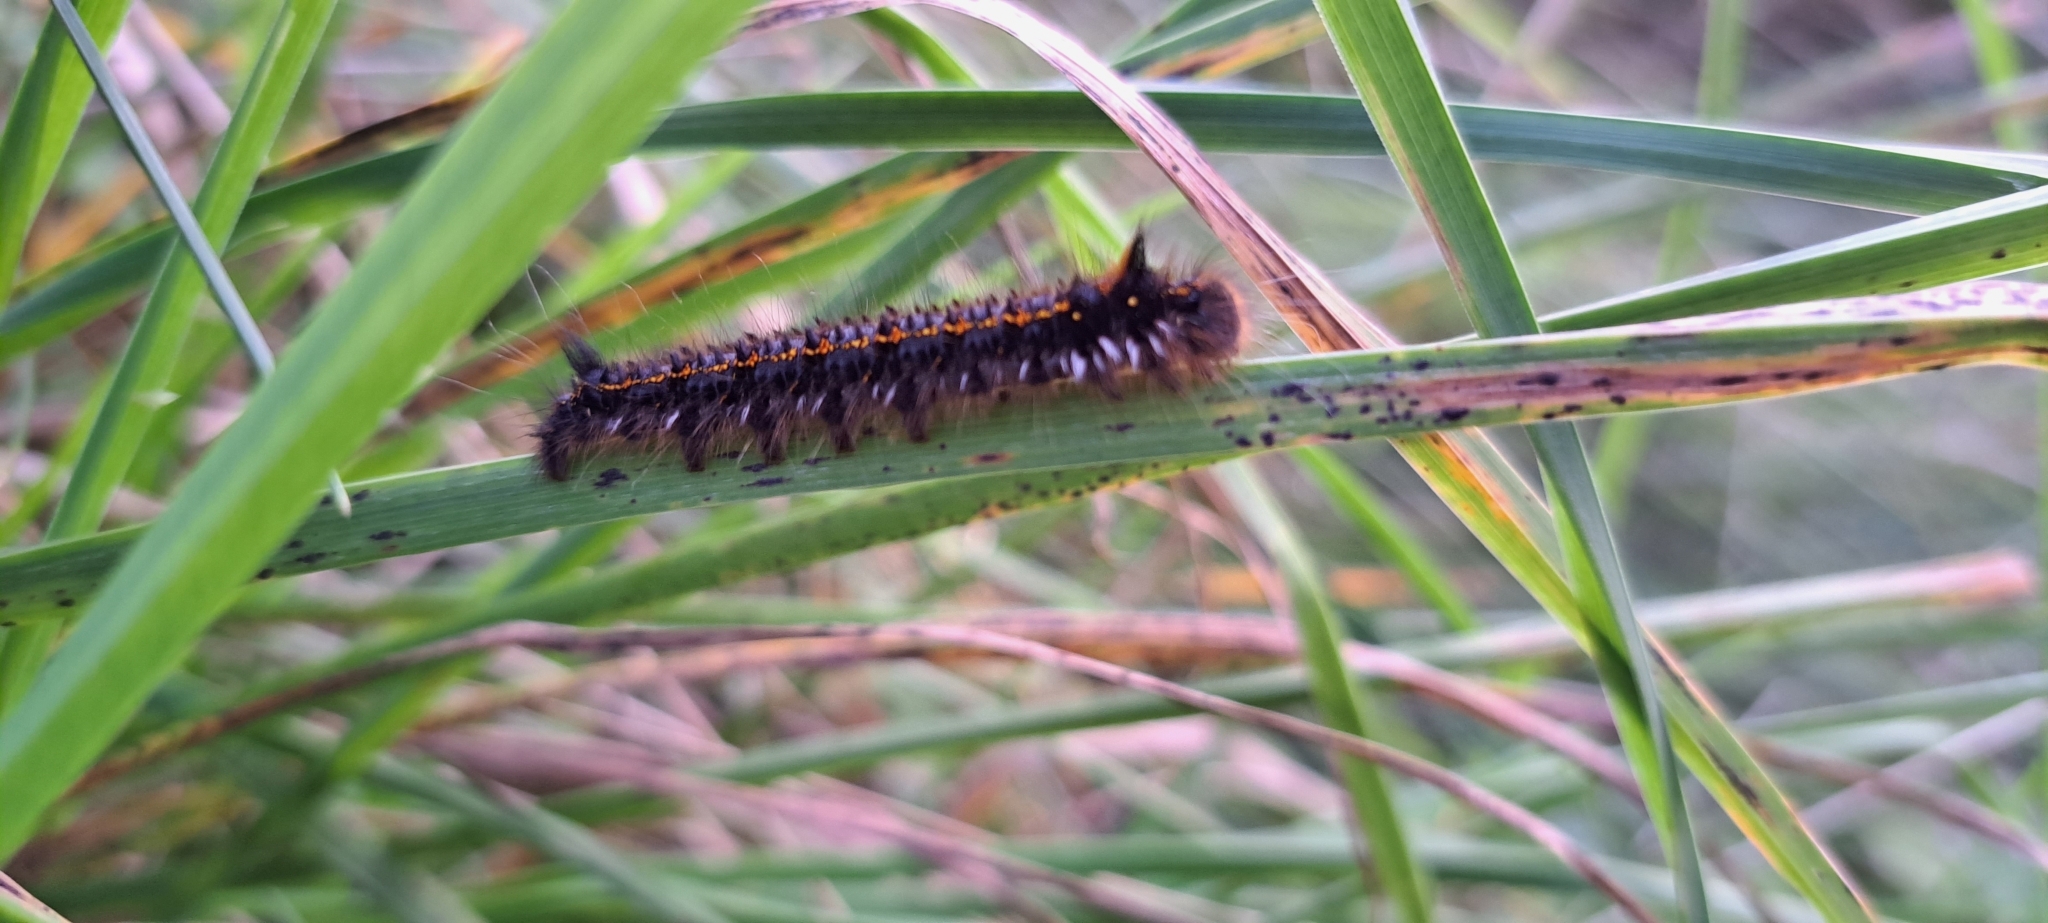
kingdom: Animalia
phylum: Arthropoda
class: Insecta
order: Lepidoptera
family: Lasiocampidae
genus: Euthrix
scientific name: Euthrix potatoria
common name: Drinker
